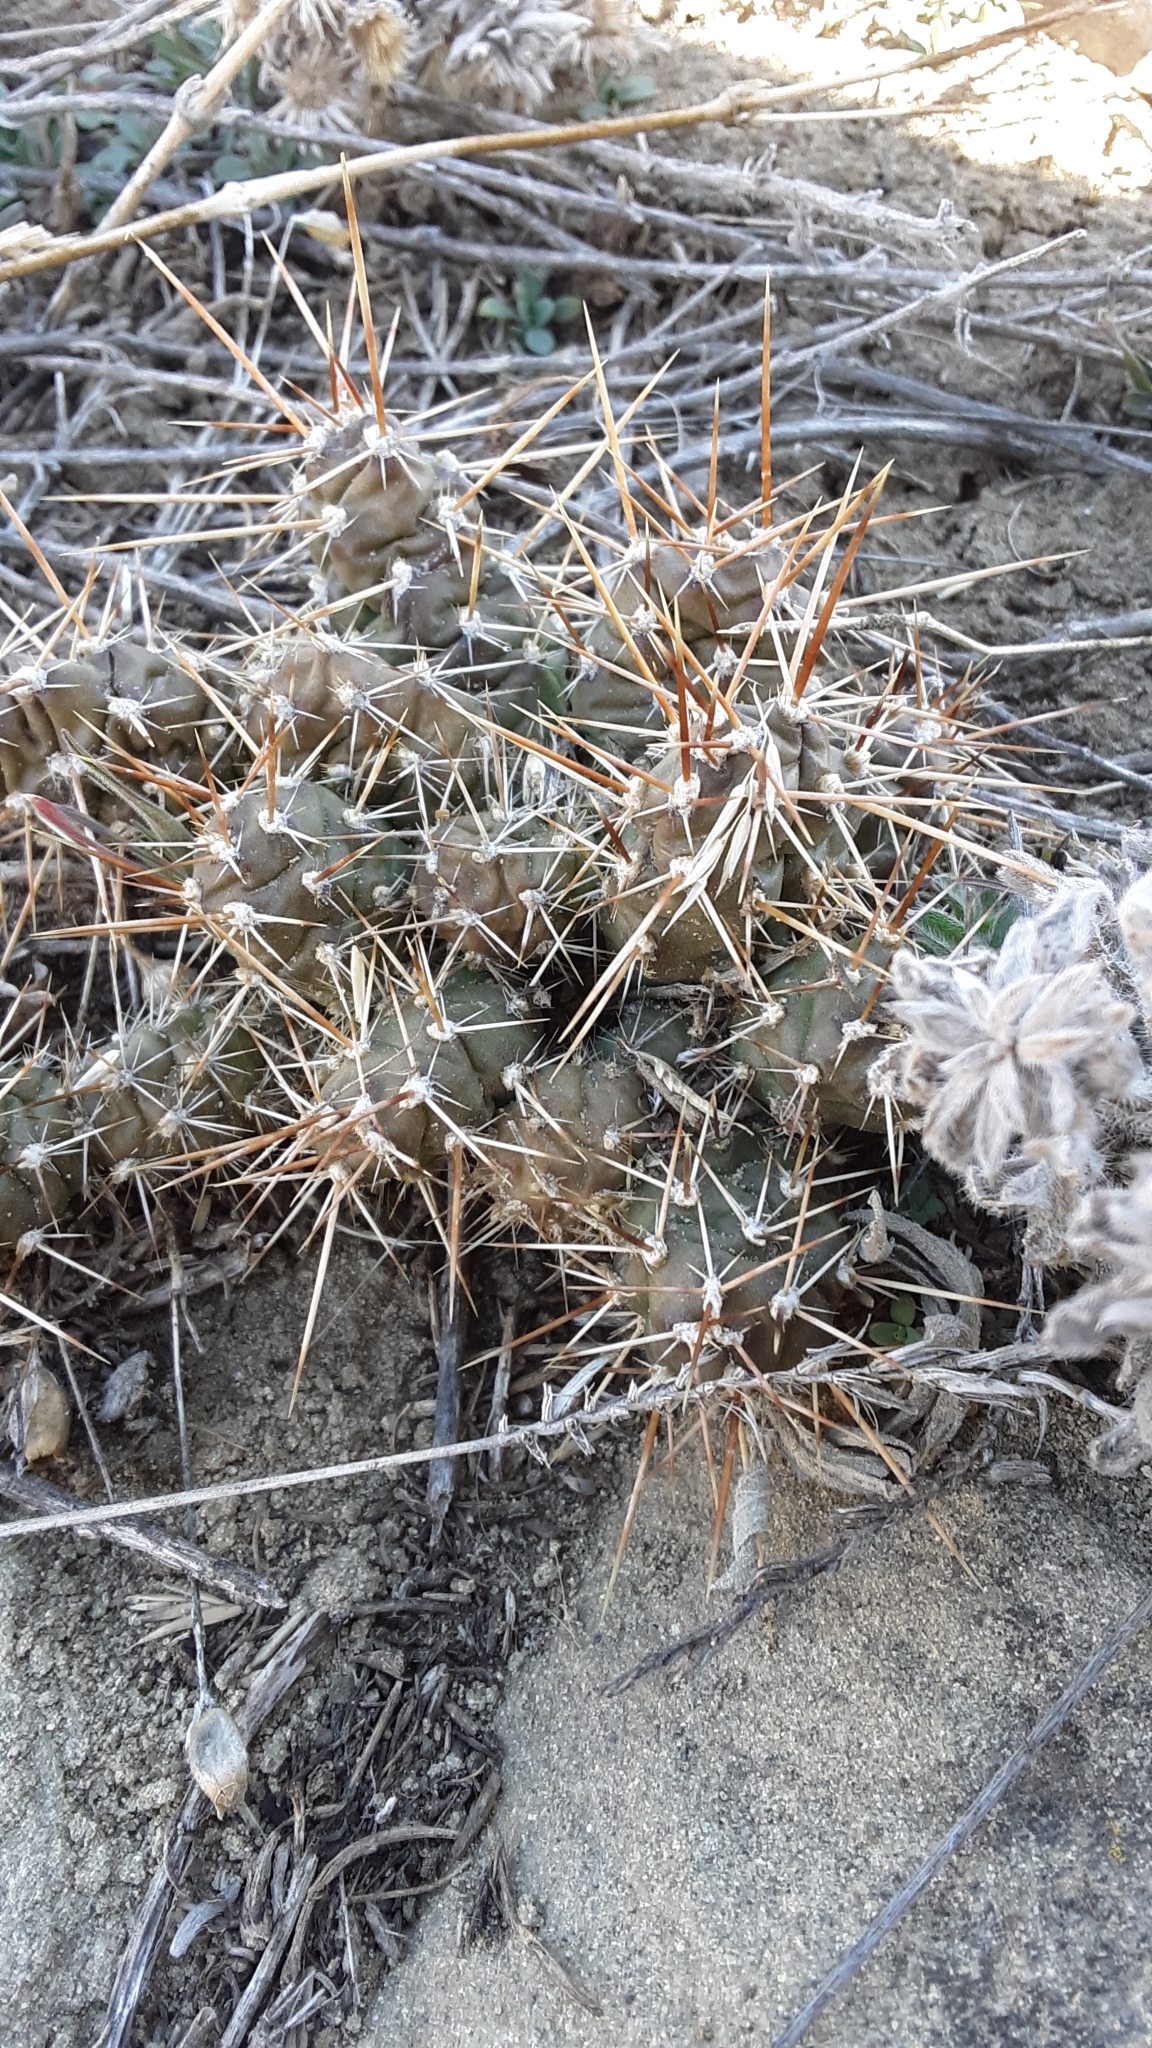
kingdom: Plantae
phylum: Tracheophyta
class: Magnoliopsida
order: Caryophyllales
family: Cactaceae
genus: Opuntia
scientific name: Opuntia fragilis
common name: Brittle cactus
